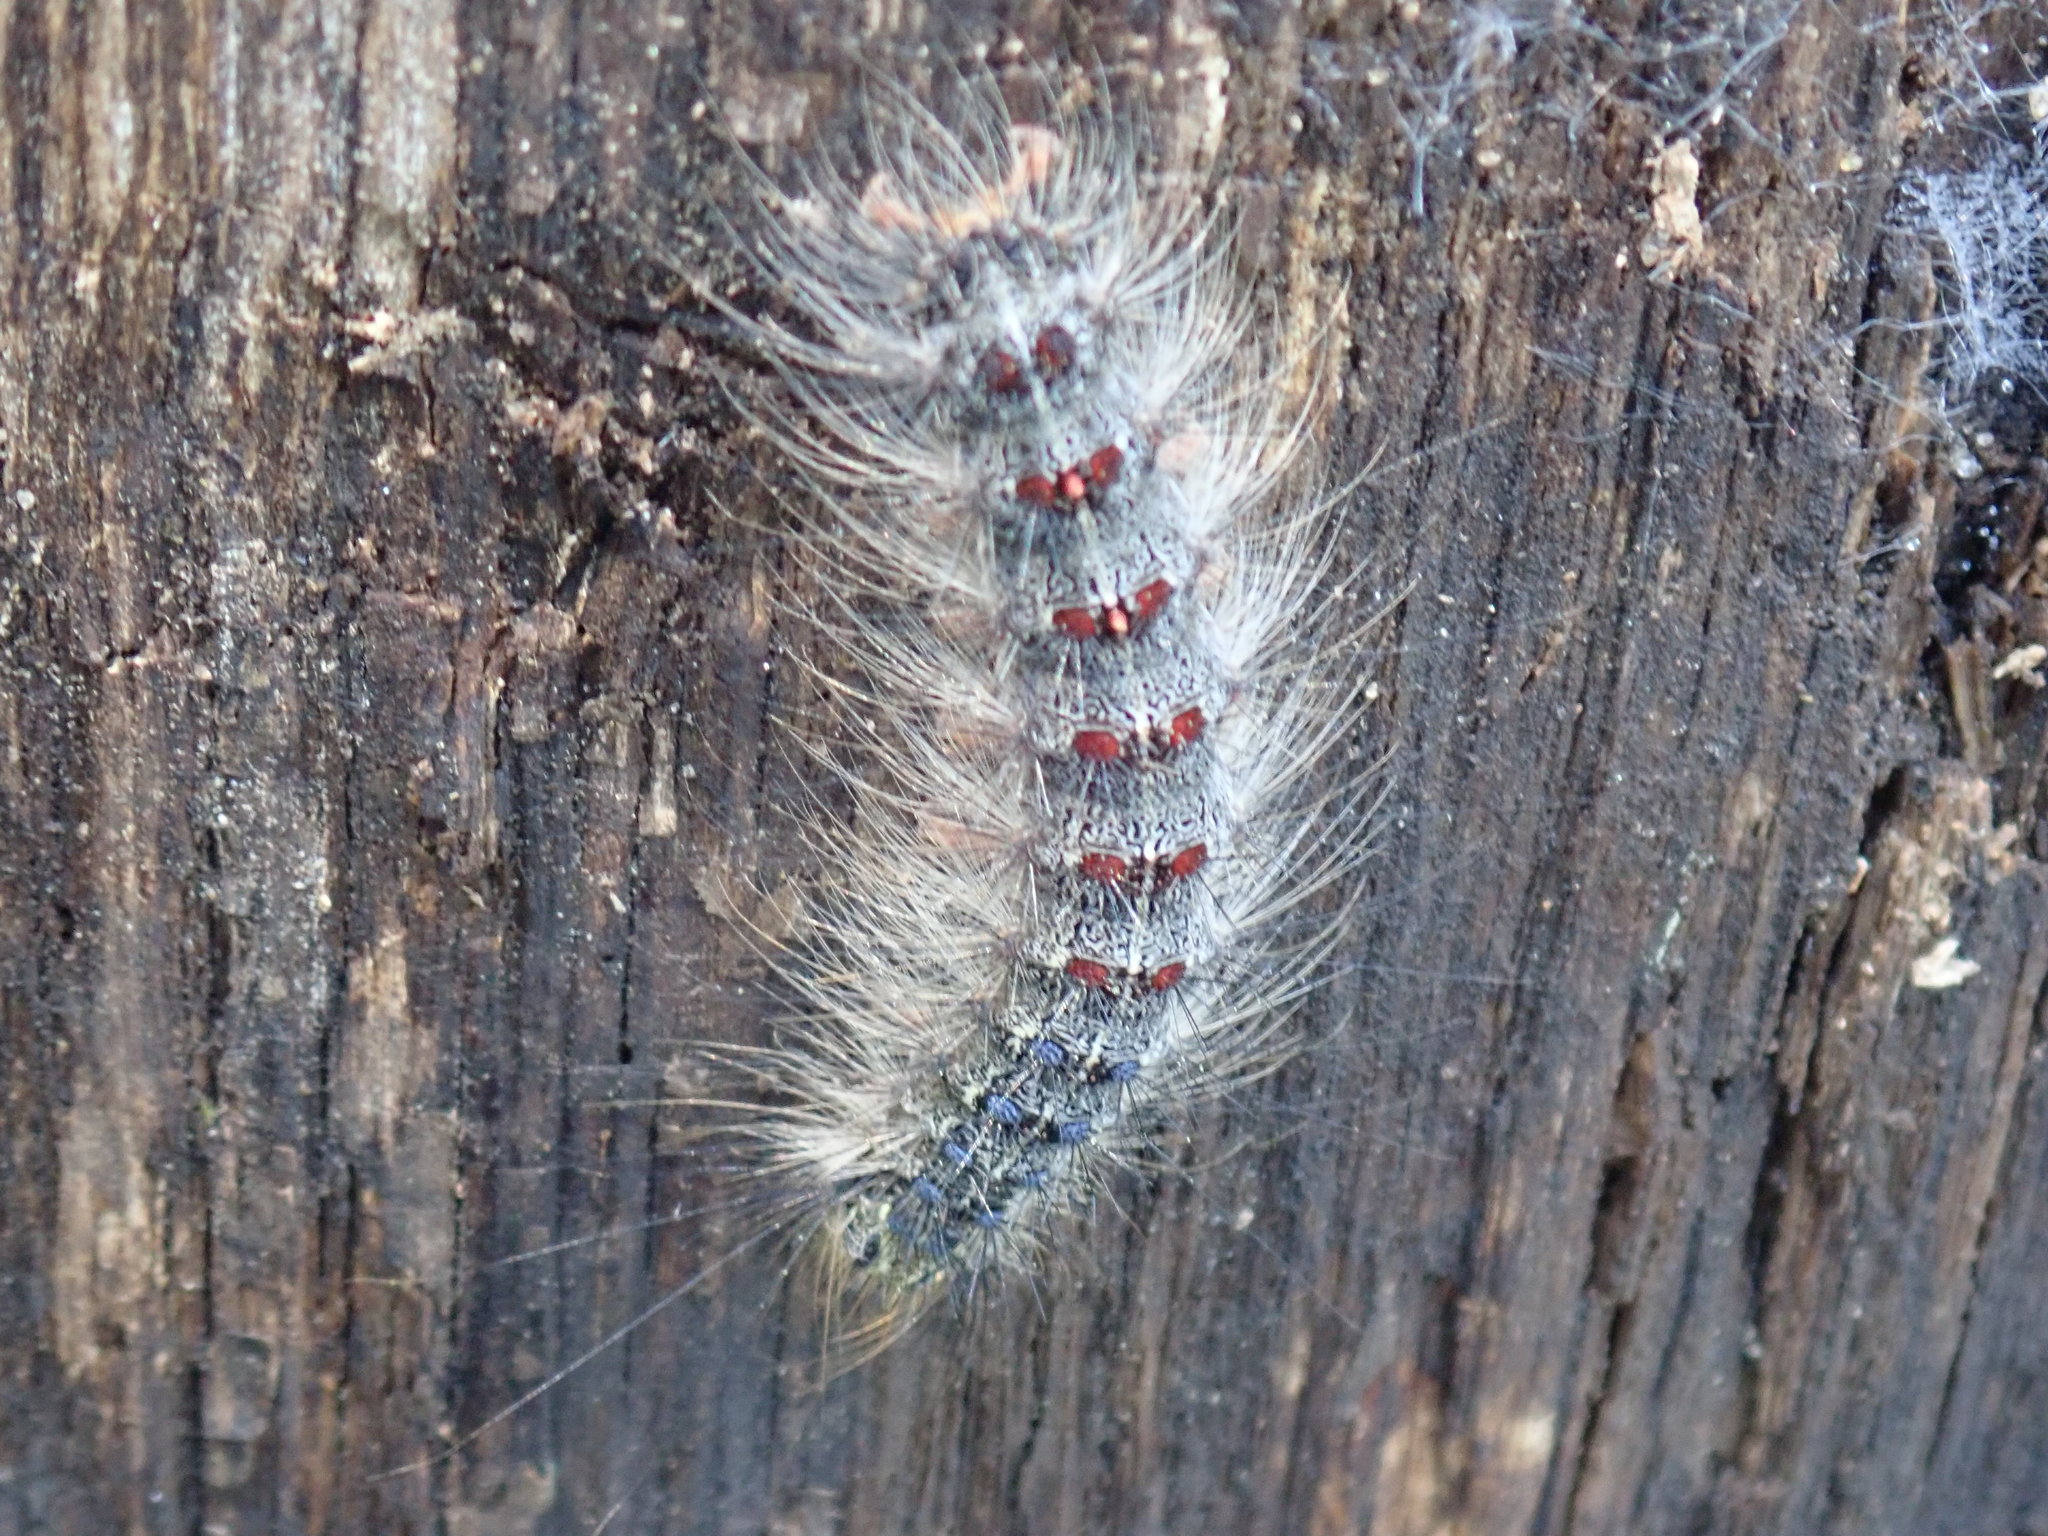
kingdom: Animalia
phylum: Arthropoda
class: Insecta
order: Lepidoptera
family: Erebidae
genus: Lymantria
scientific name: Lymantria dispar
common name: Gypsy moth
